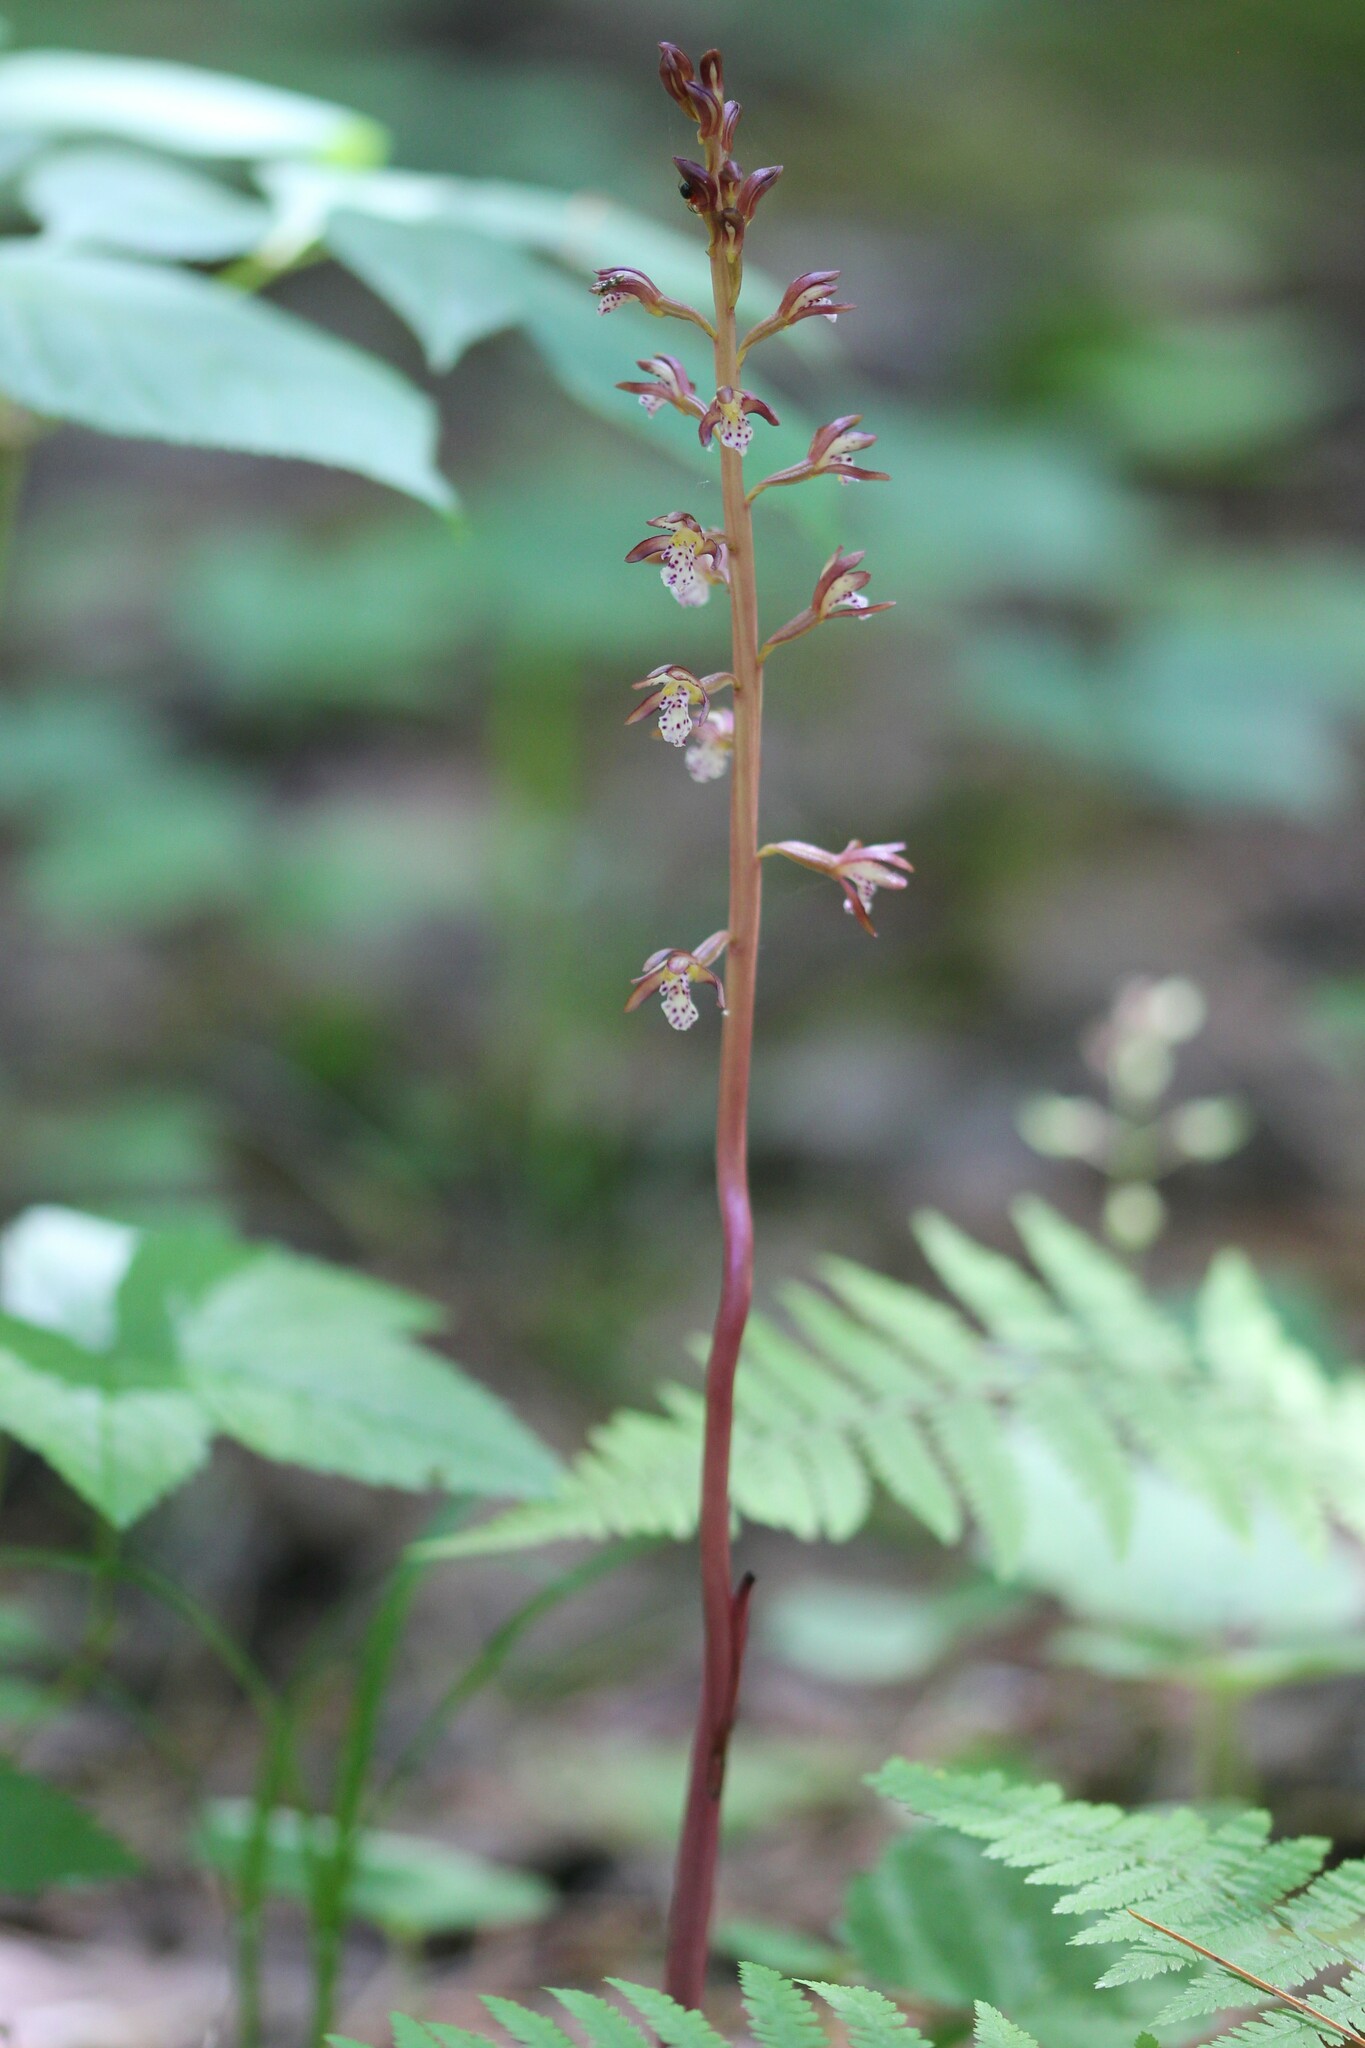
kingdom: Plantae
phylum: Tracheophyta
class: Liliopsida
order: Asparagales
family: Orchidaceae
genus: Corallorhiza
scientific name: Corallorhiza maculata
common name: Spotted coralroot
